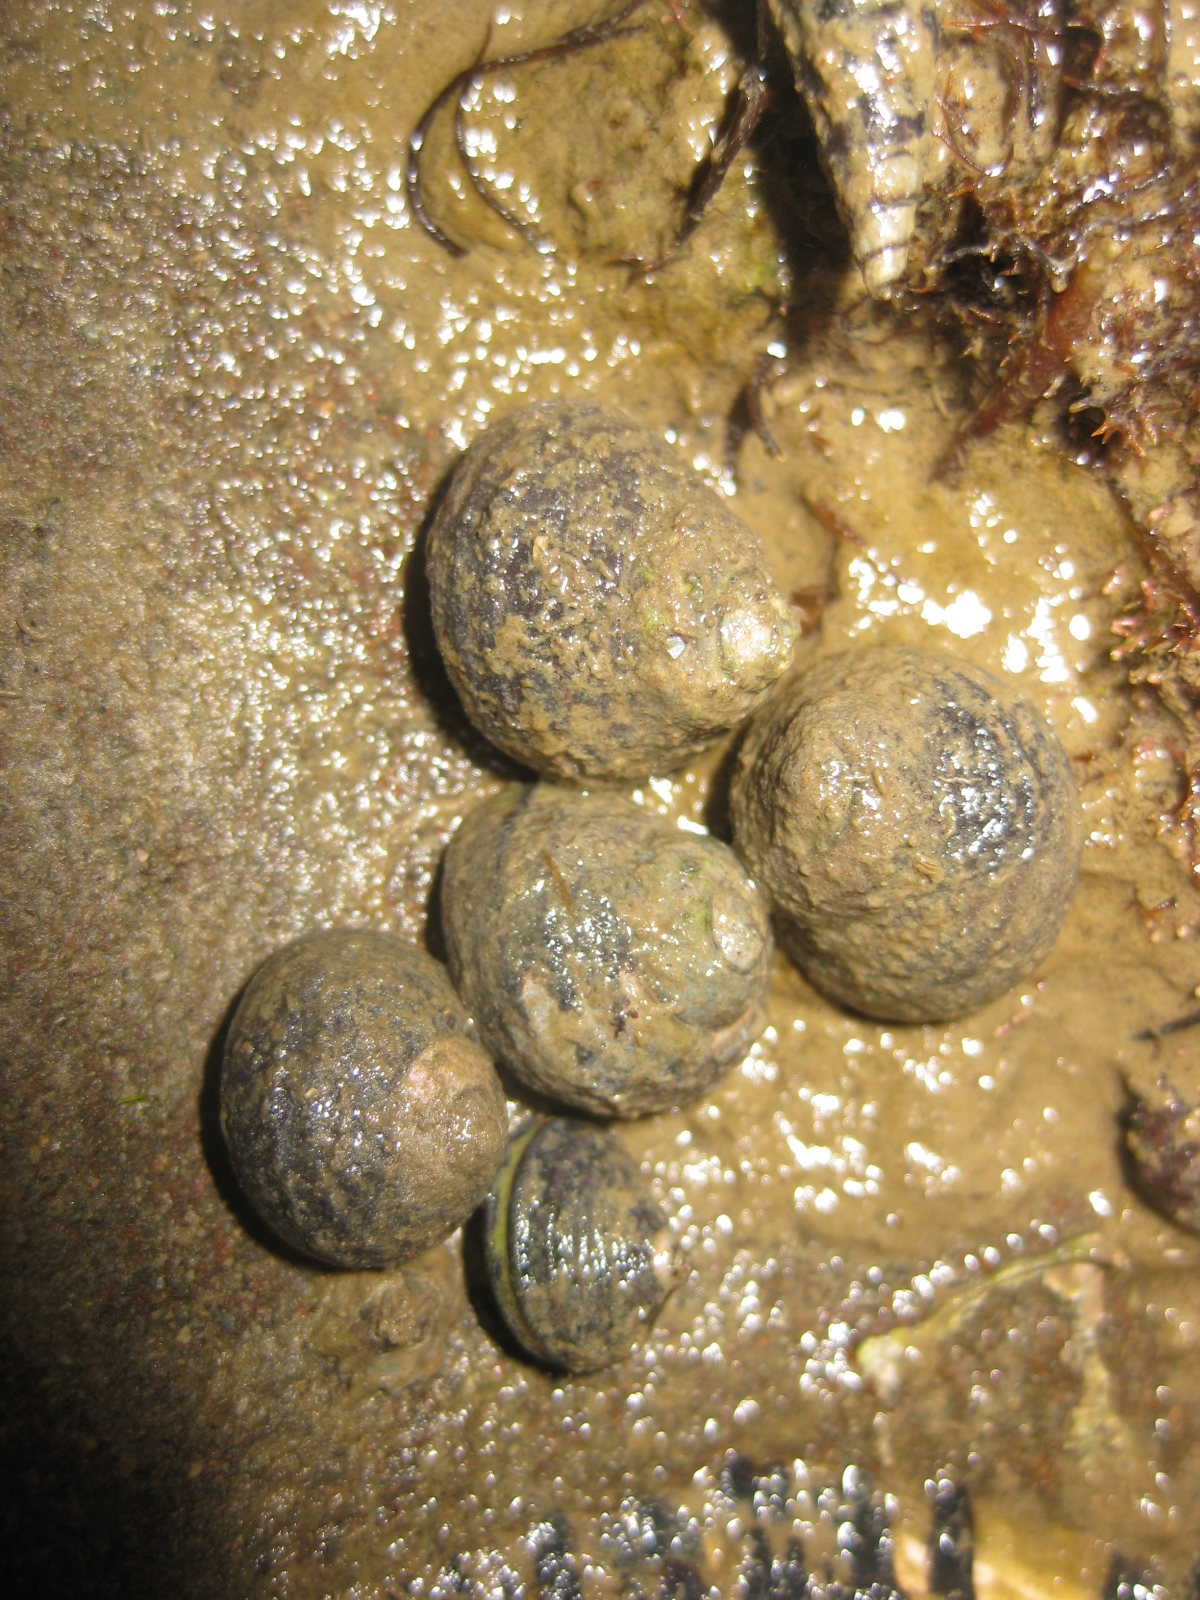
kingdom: Animalia
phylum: Mollusca
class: Gastropoda
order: Trochida
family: Trochidae
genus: Diloma
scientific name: Diloma subrostratum
